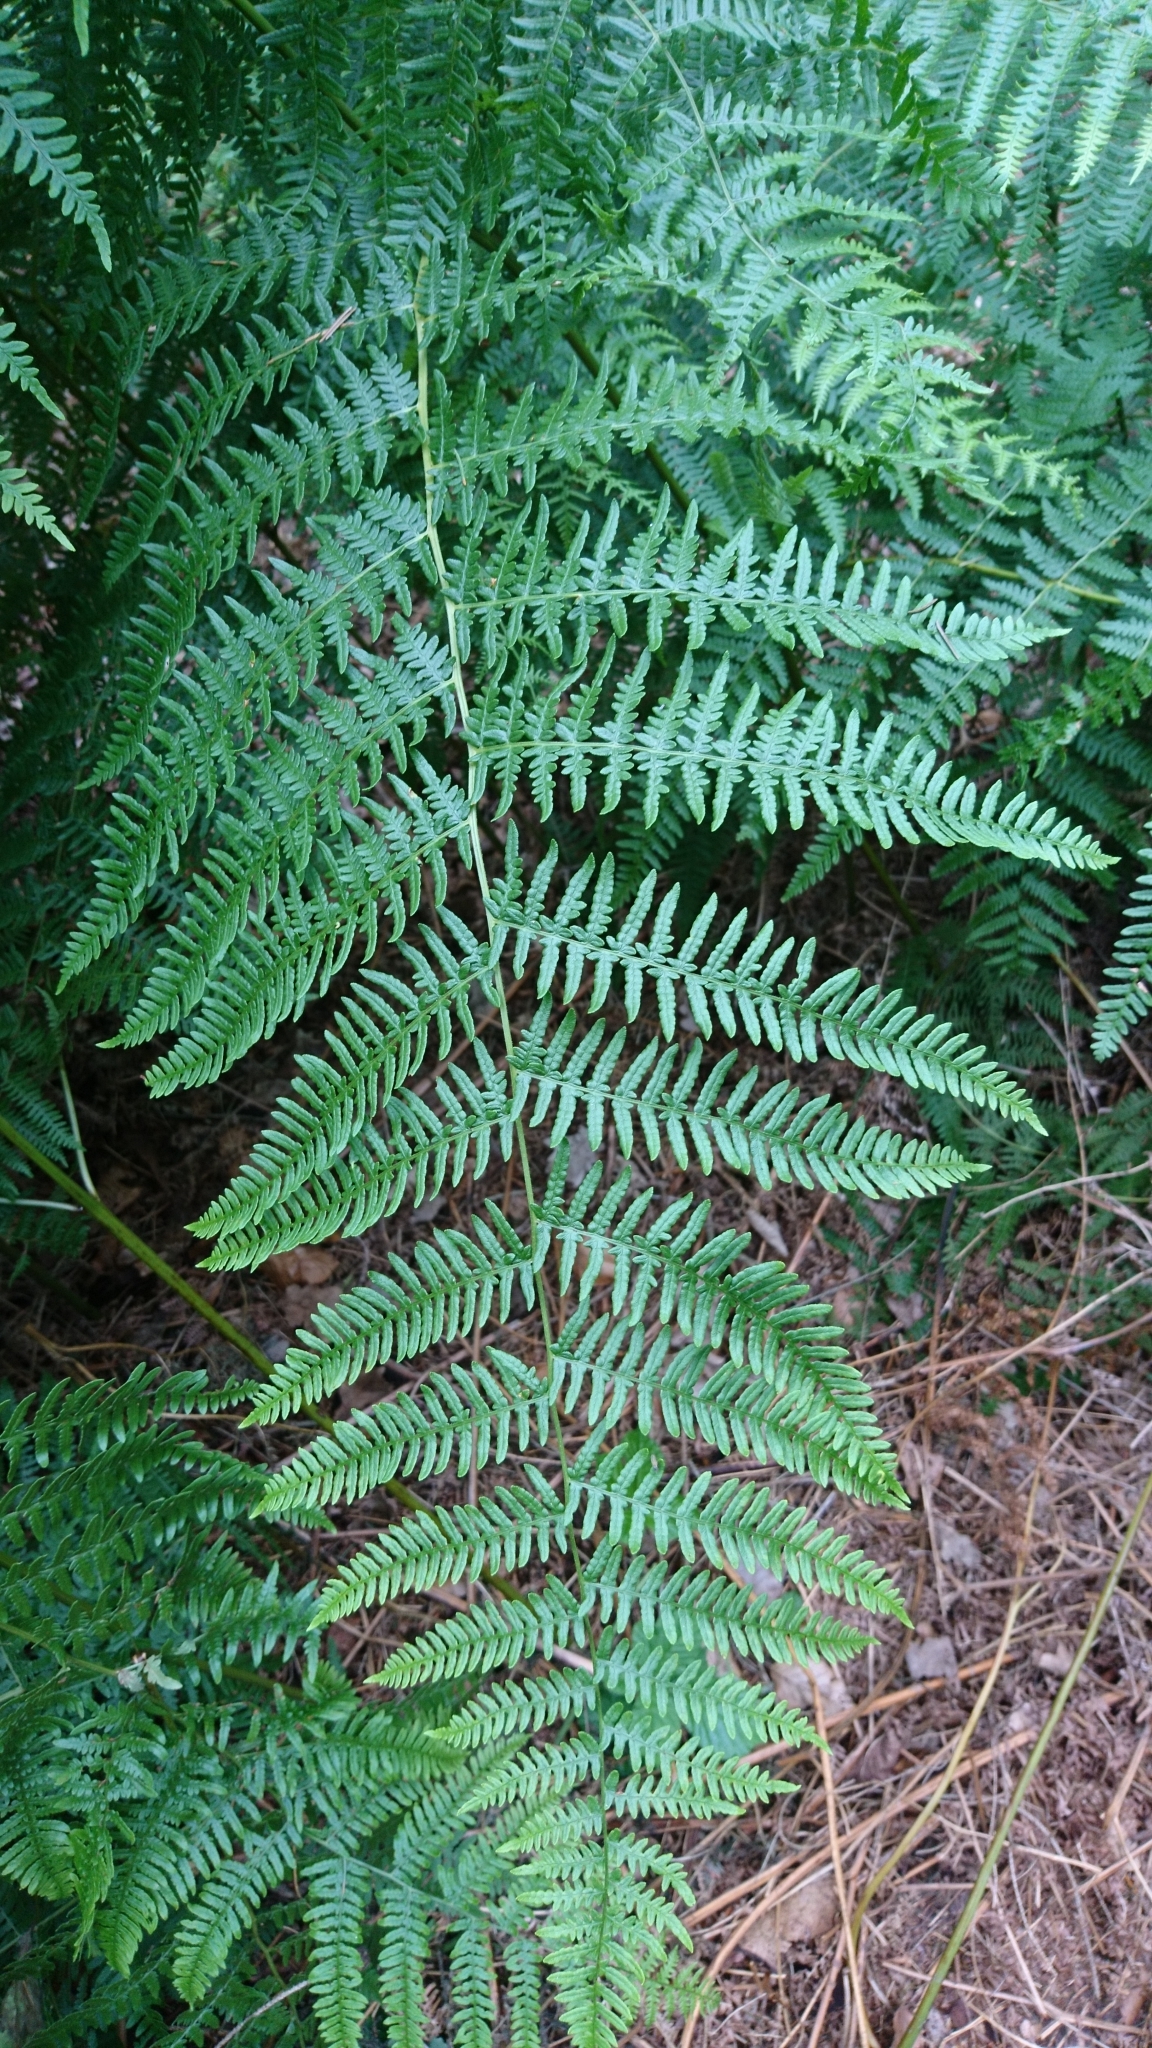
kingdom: Plantae
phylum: Tracheophyta
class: Polypodiopsida
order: Polypodiales
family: Dennstaedtiaceae
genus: Pteridium
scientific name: Pteridium aquilinum
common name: Bracken
